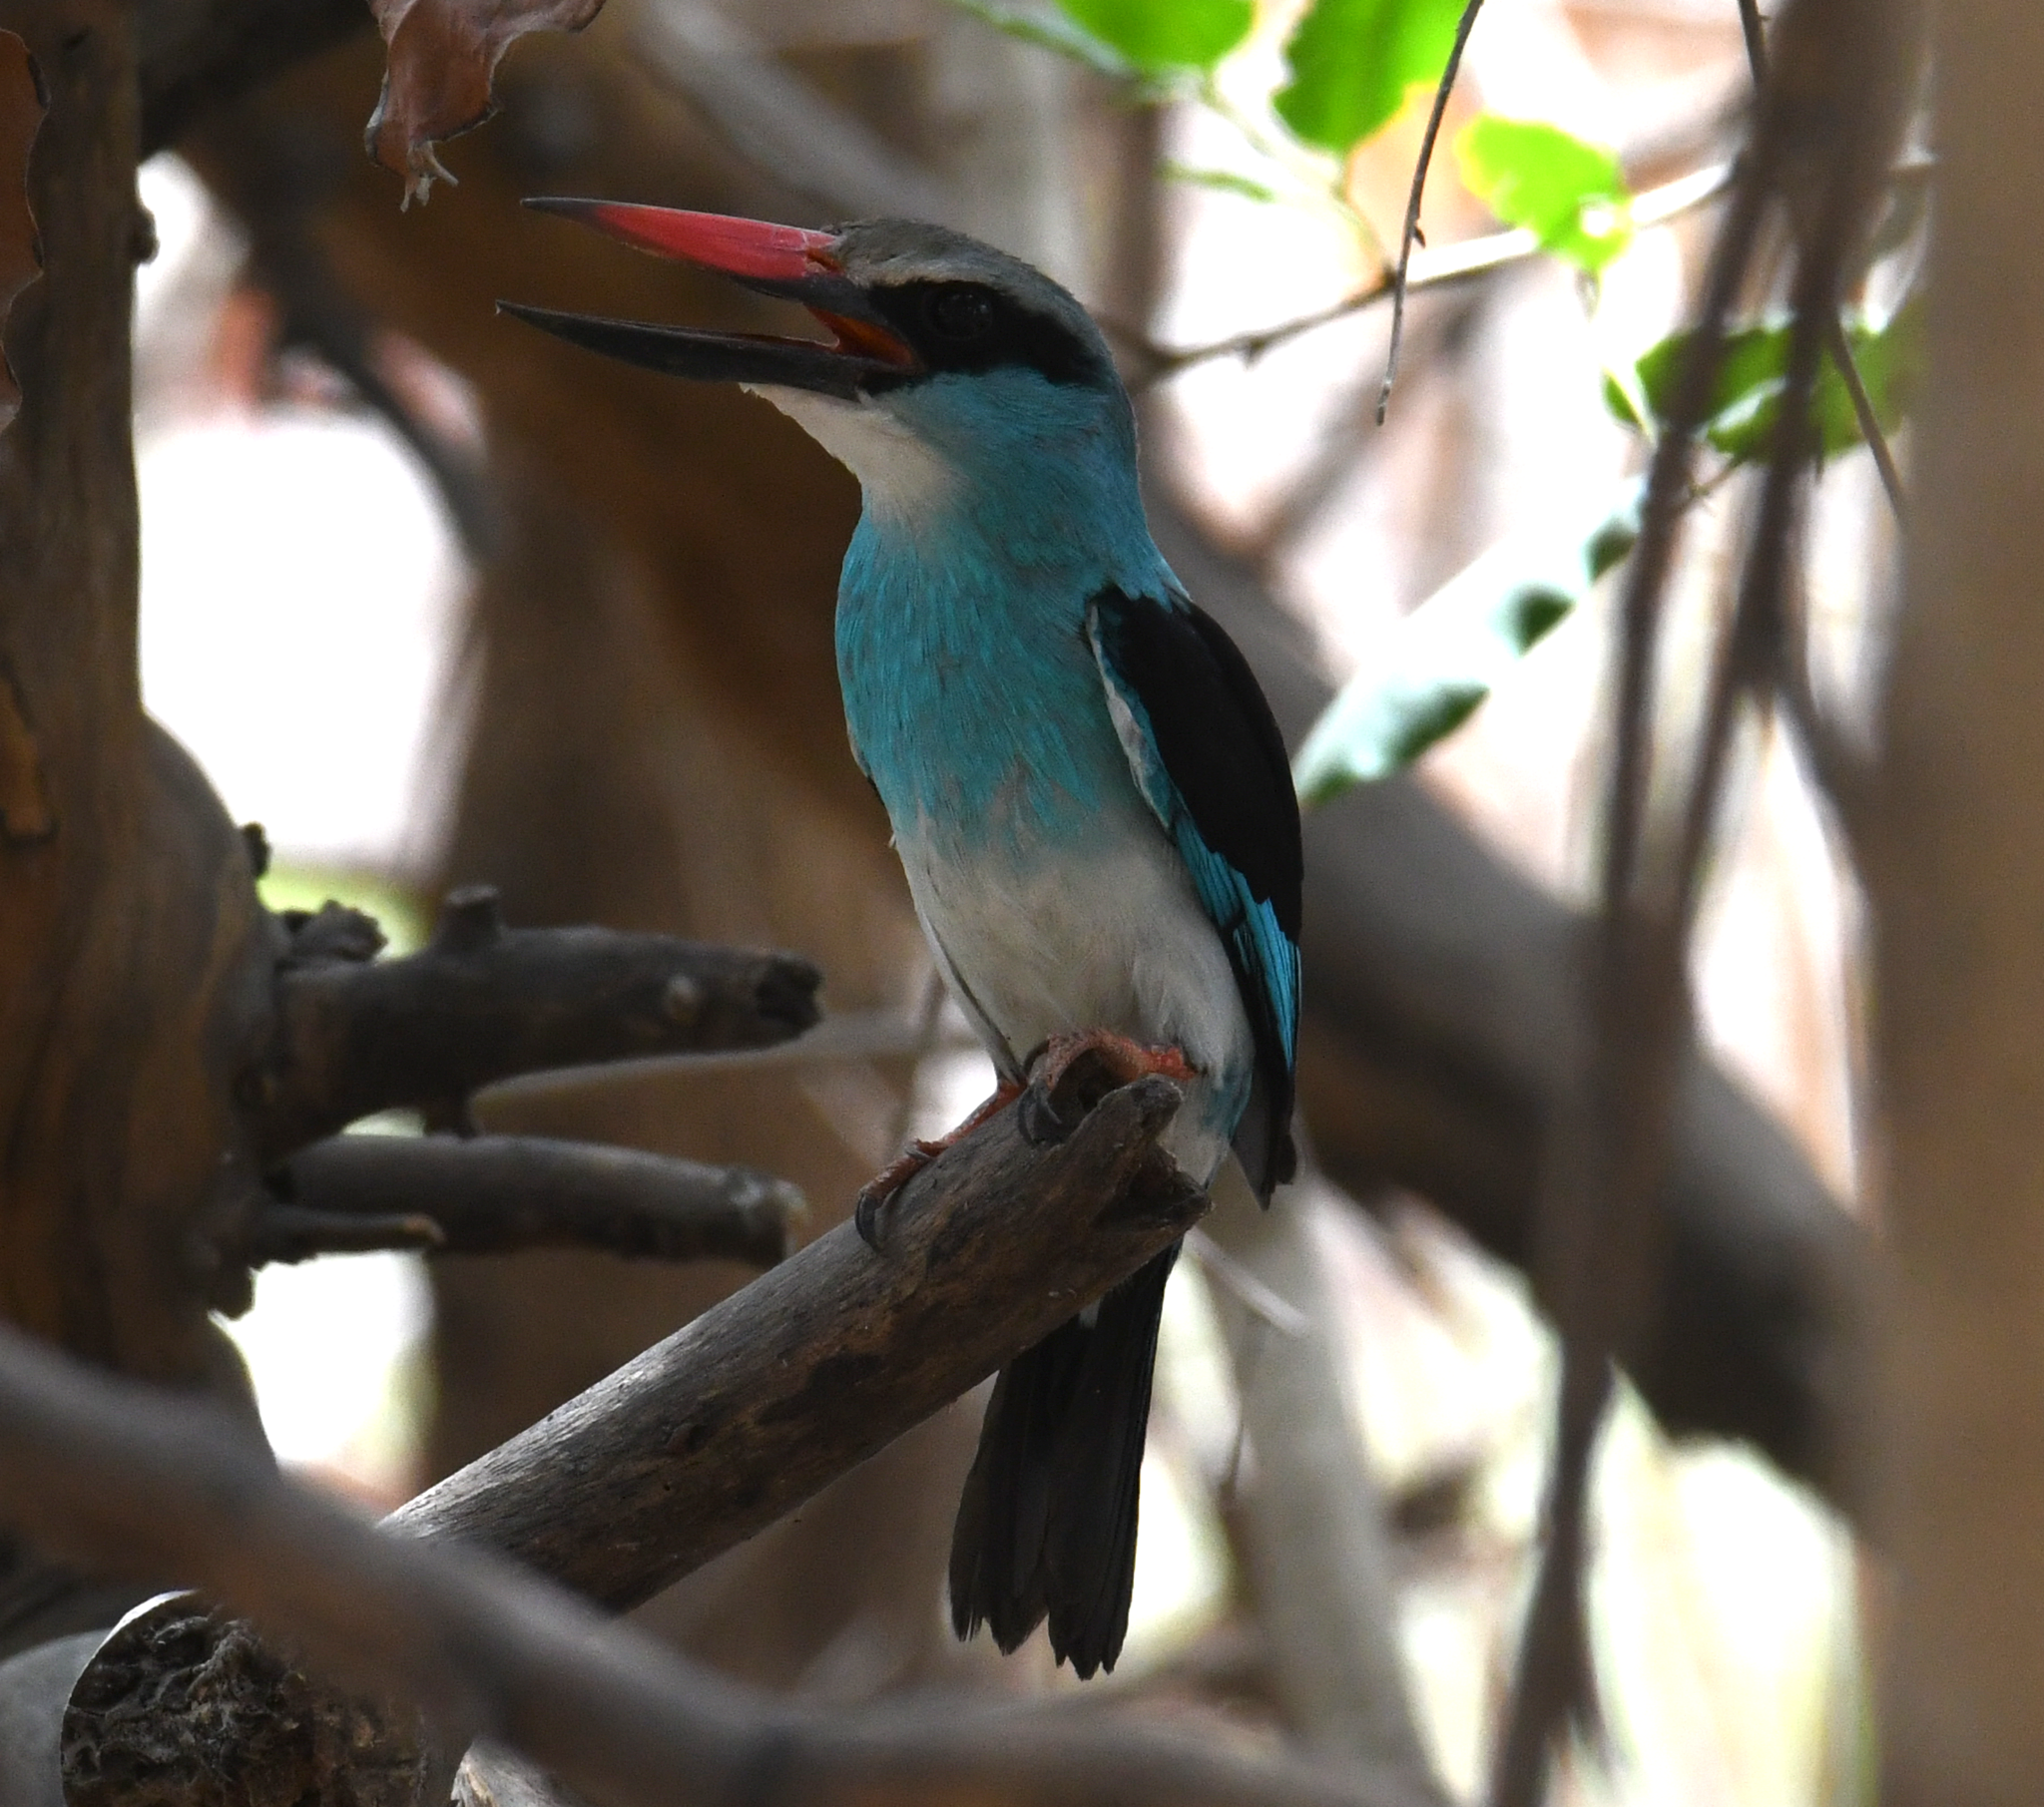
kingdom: Animalia
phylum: Chordata
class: Aves
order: Coraciiformes
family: Alcedinidae
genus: Halcyon
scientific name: Halcyon malimbica
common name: Blue-breasted kingfisher
